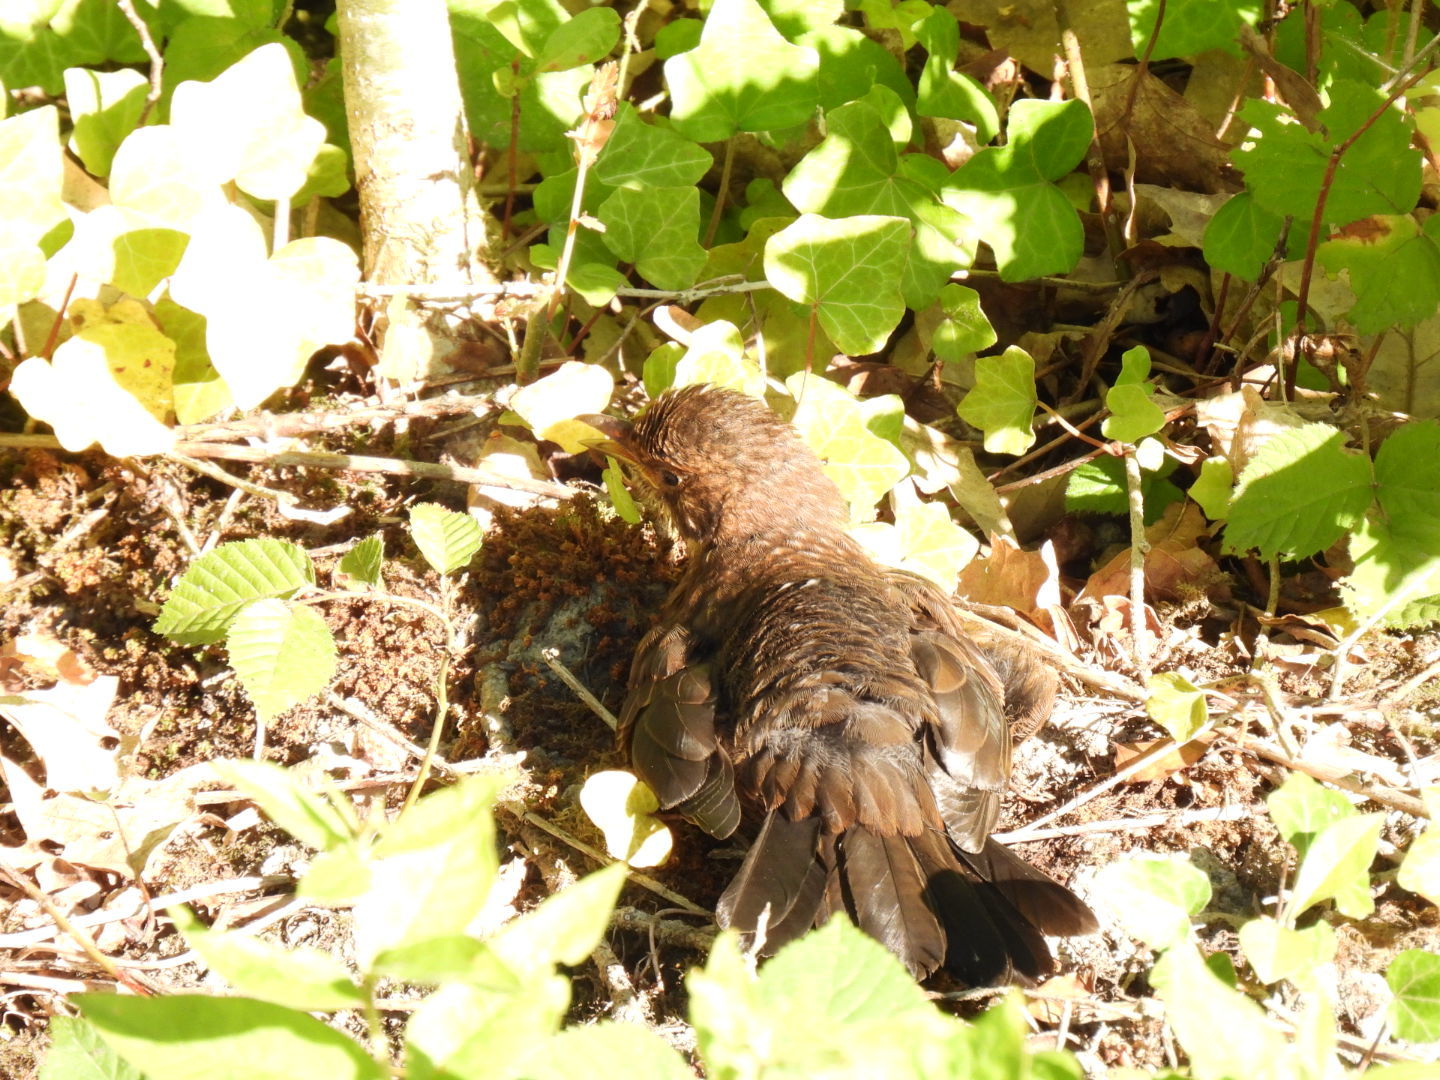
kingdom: Animalia
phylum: Chordata
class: Aves
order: Passeriformes
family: Turdidae
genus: Turdus
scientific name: Turdus merula
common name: Common blackbird
